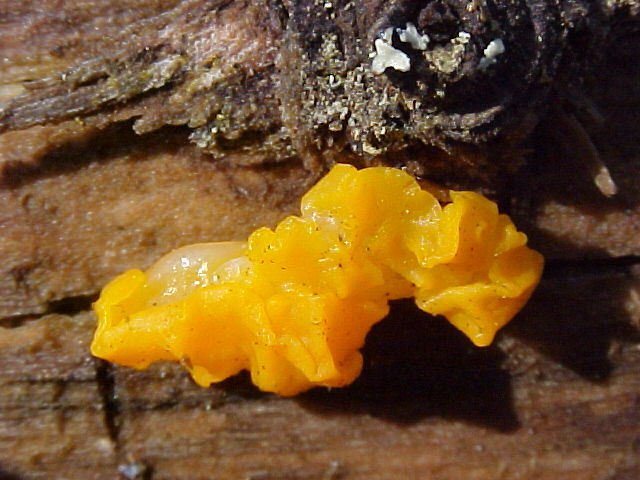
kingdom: Fungi
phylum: Basidiomycota
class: Dacrymycetes
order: Dacrymycetales
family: Dacrymycetaceae
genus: Dacrymyces
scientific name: Dacrymyces chrysospermus
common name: Orange jelly spot
